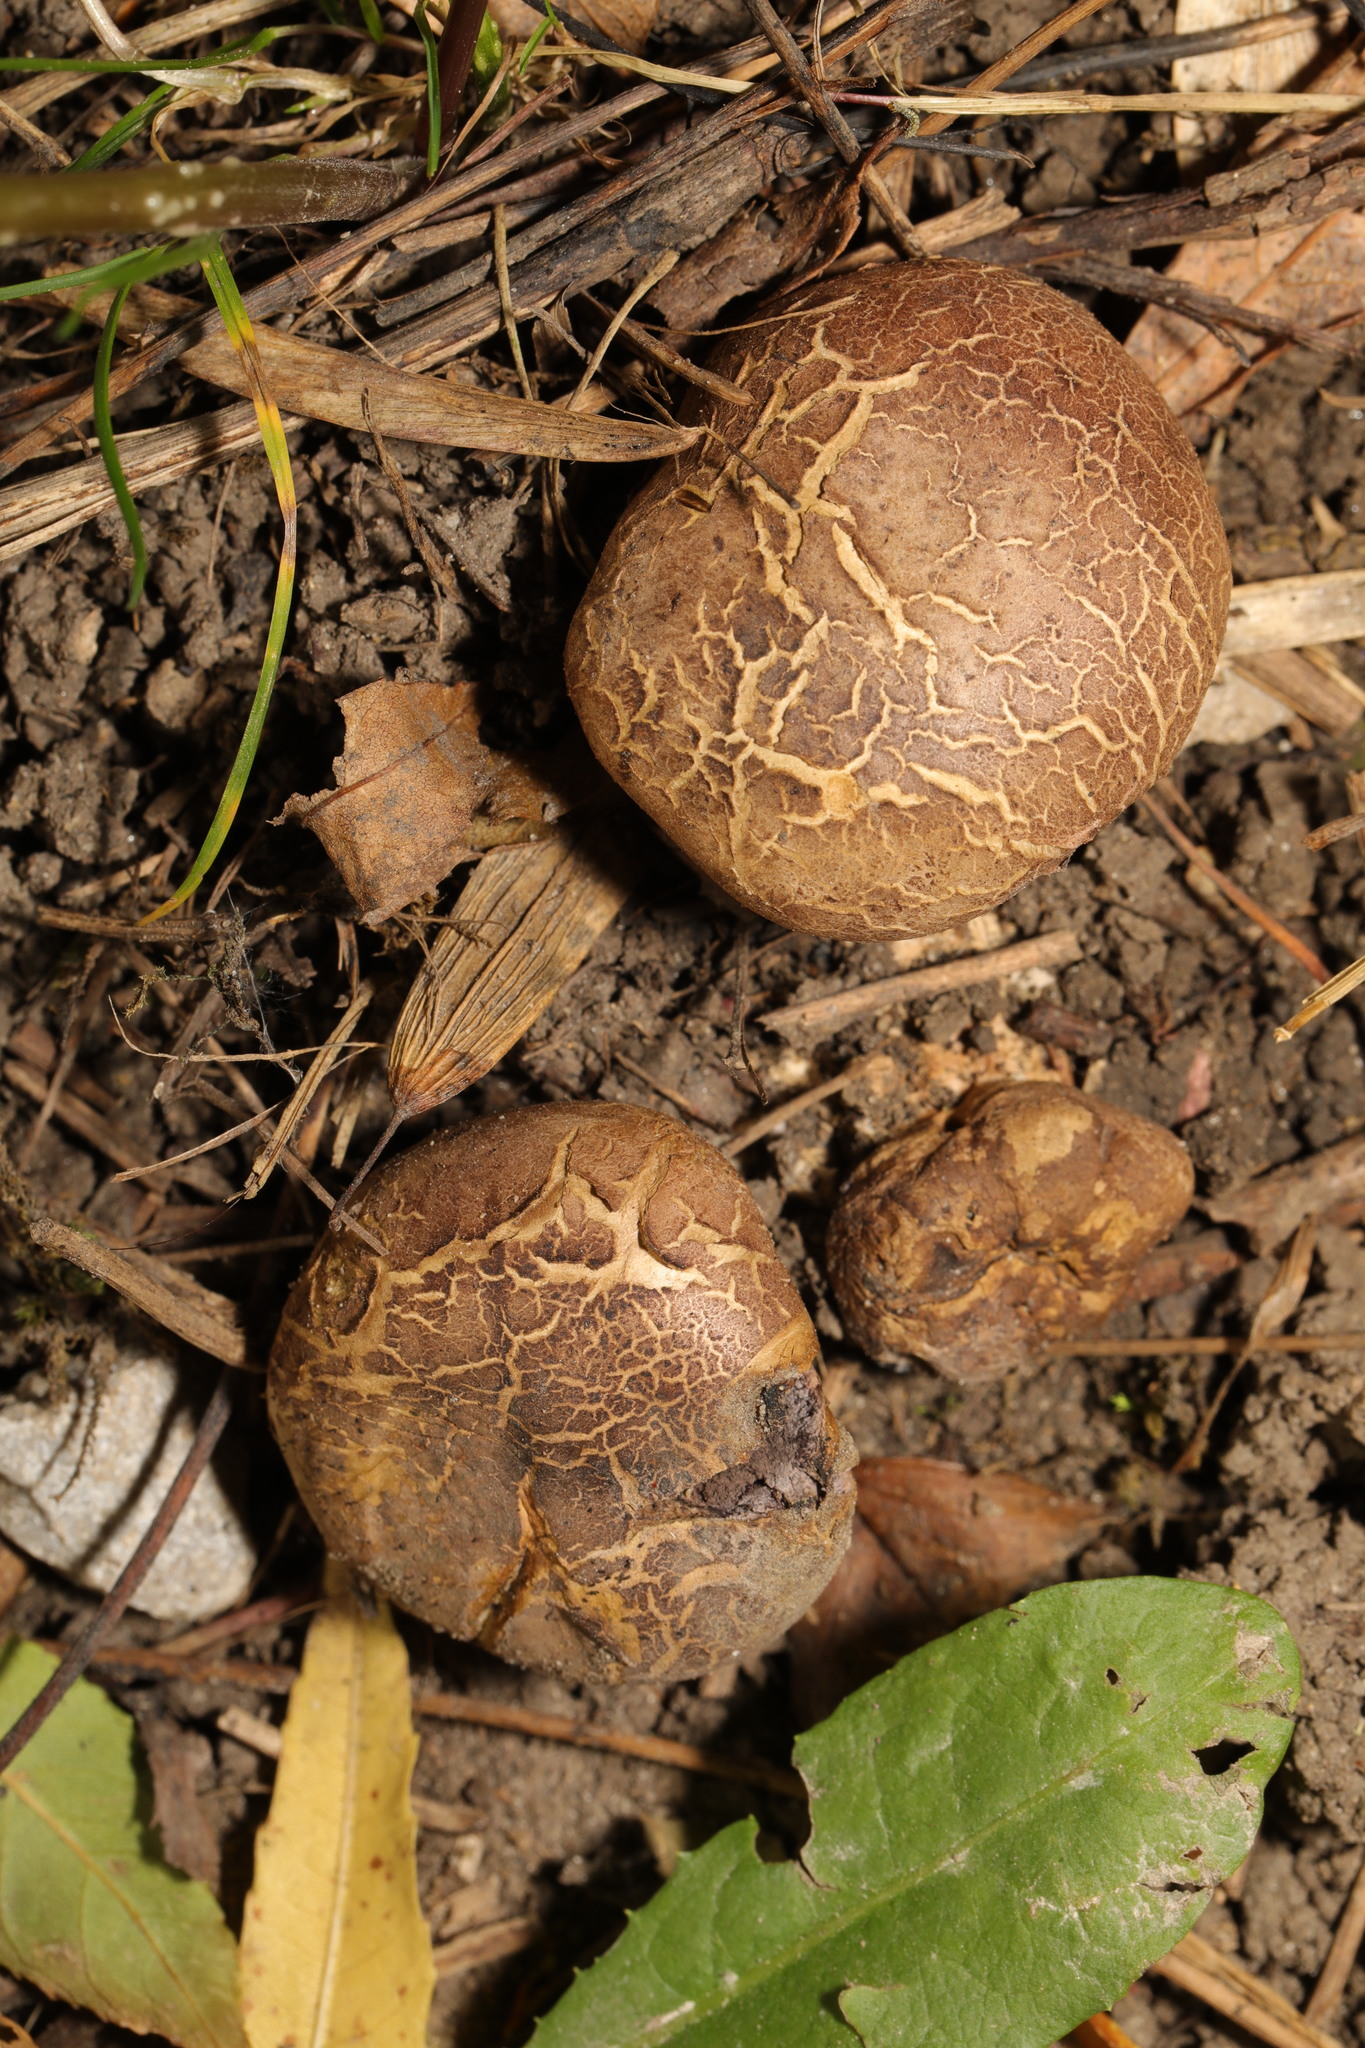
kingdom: Fungi
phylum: Basidiomycota
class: Agaricomycetes
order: Boletales
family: Sclerodermataceae
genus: Scleroderma
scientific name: Scleroderma citrinum
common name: Common earthball
